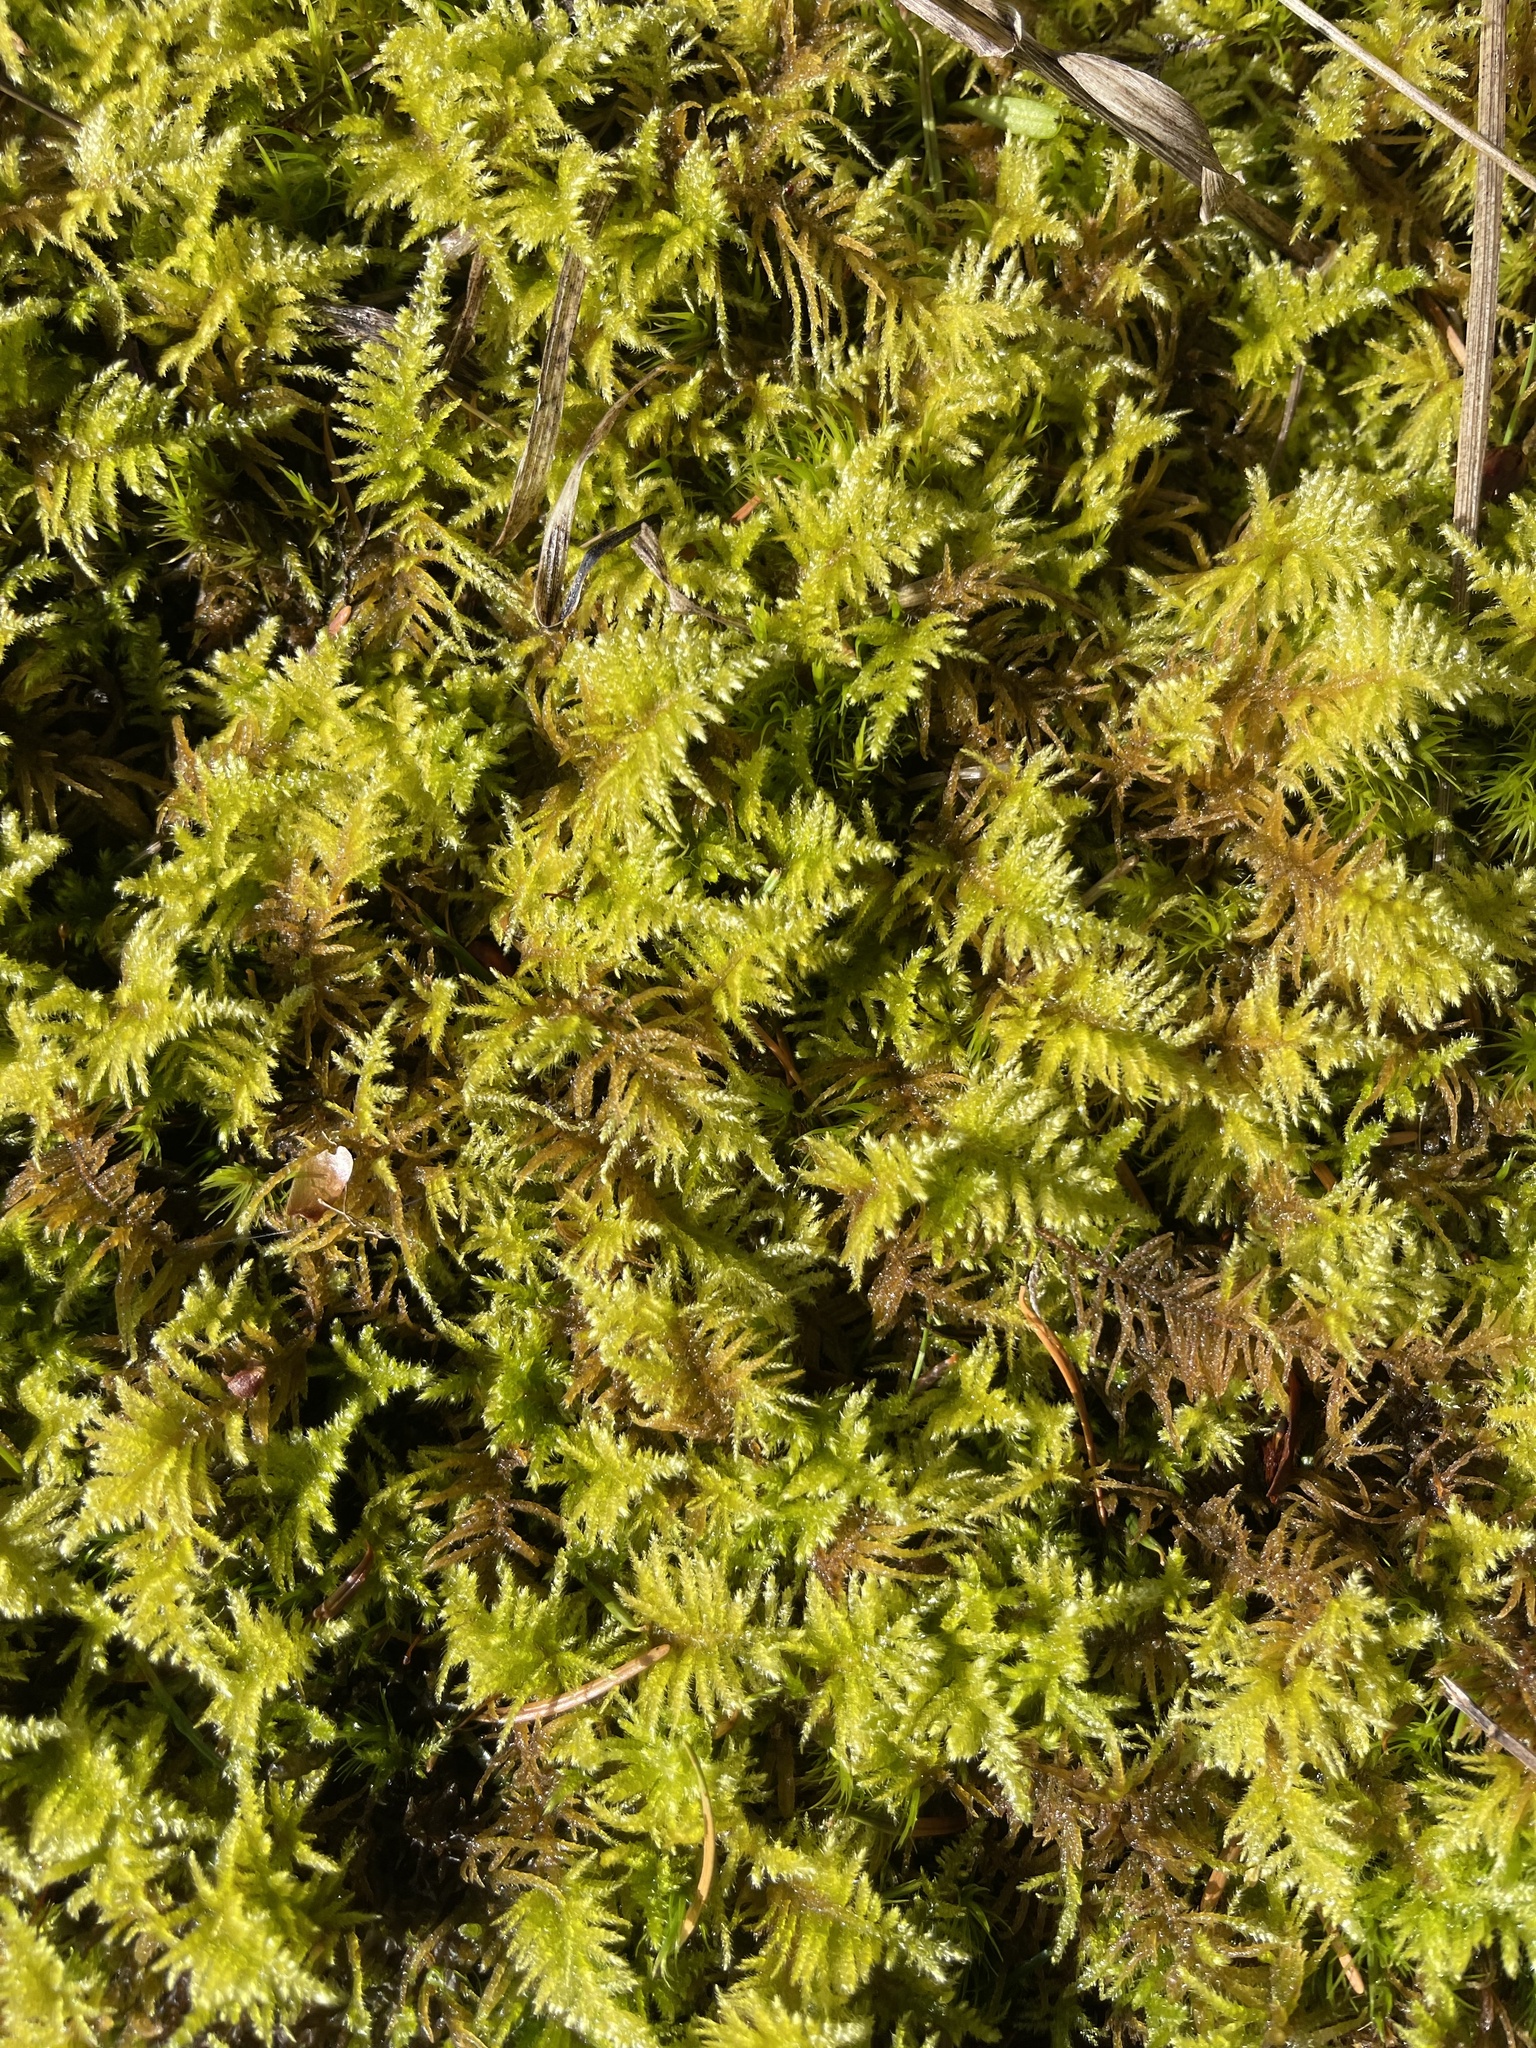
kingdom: Plantae
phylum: Bryophyta
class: Bryopsida
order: Hypnales
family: Brachytheciaceae
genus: Kindbergia
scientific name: Kindbergia oregana
